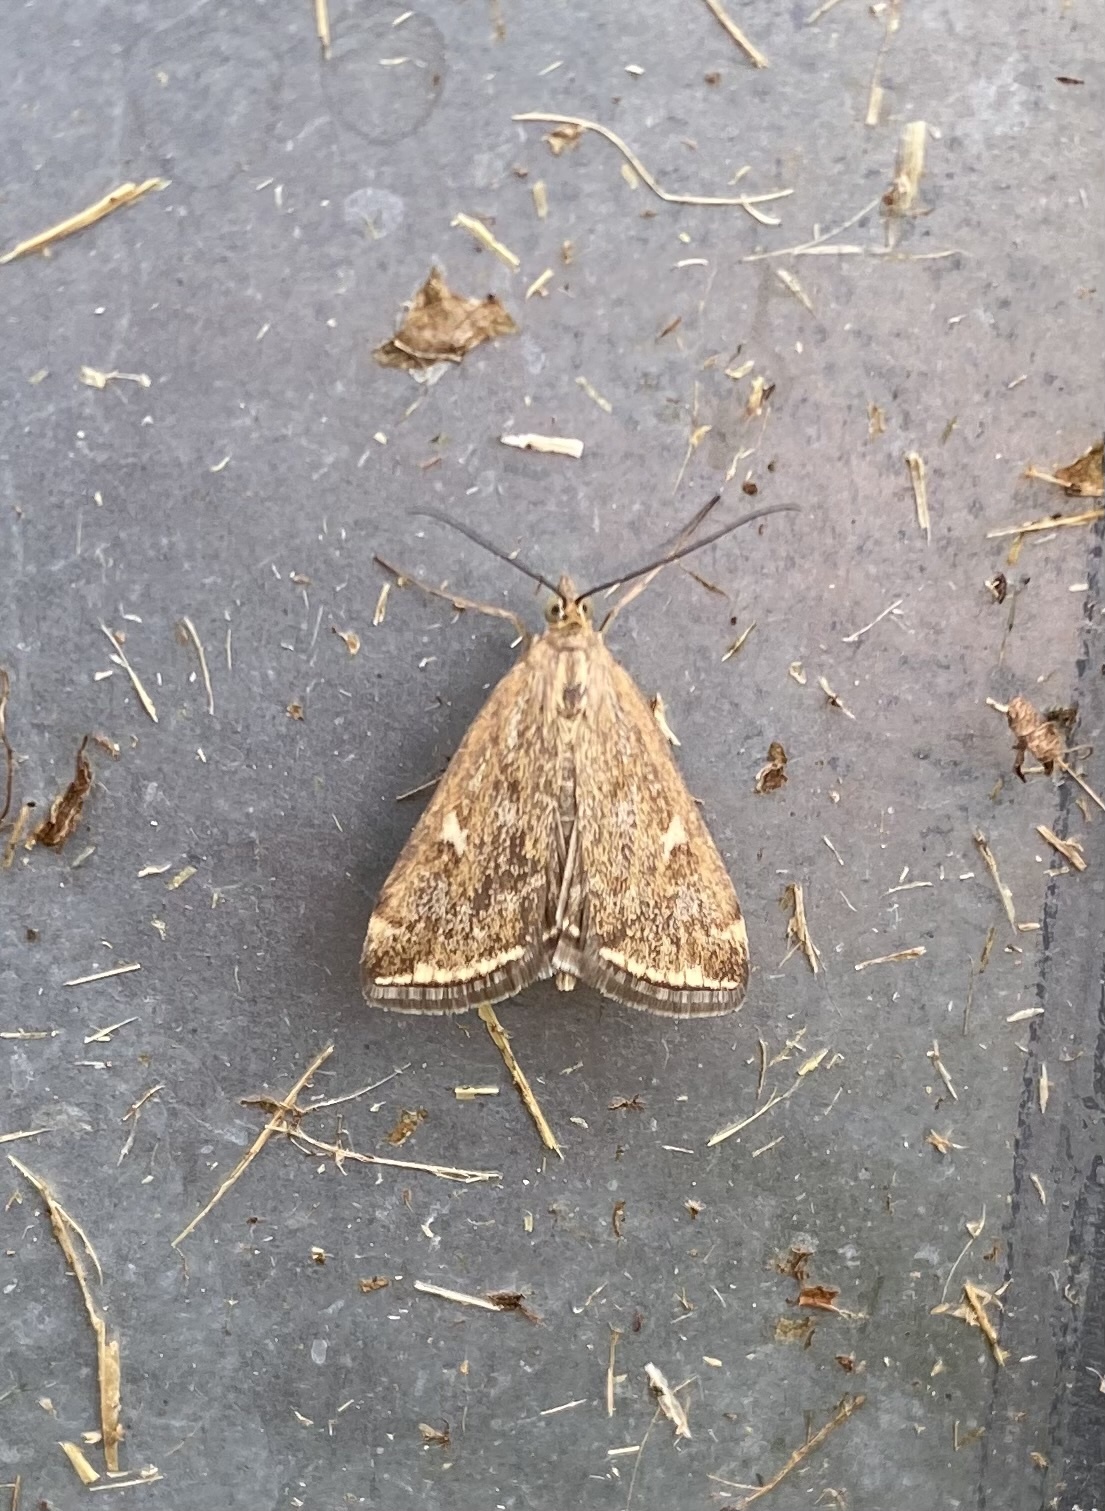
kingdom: Animalia
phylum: Arthropoda
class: Insecta
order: Lepidoptera
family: Crambidae
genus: Loxostege
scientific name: Loxostege sticticalis
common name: Crambid moth
